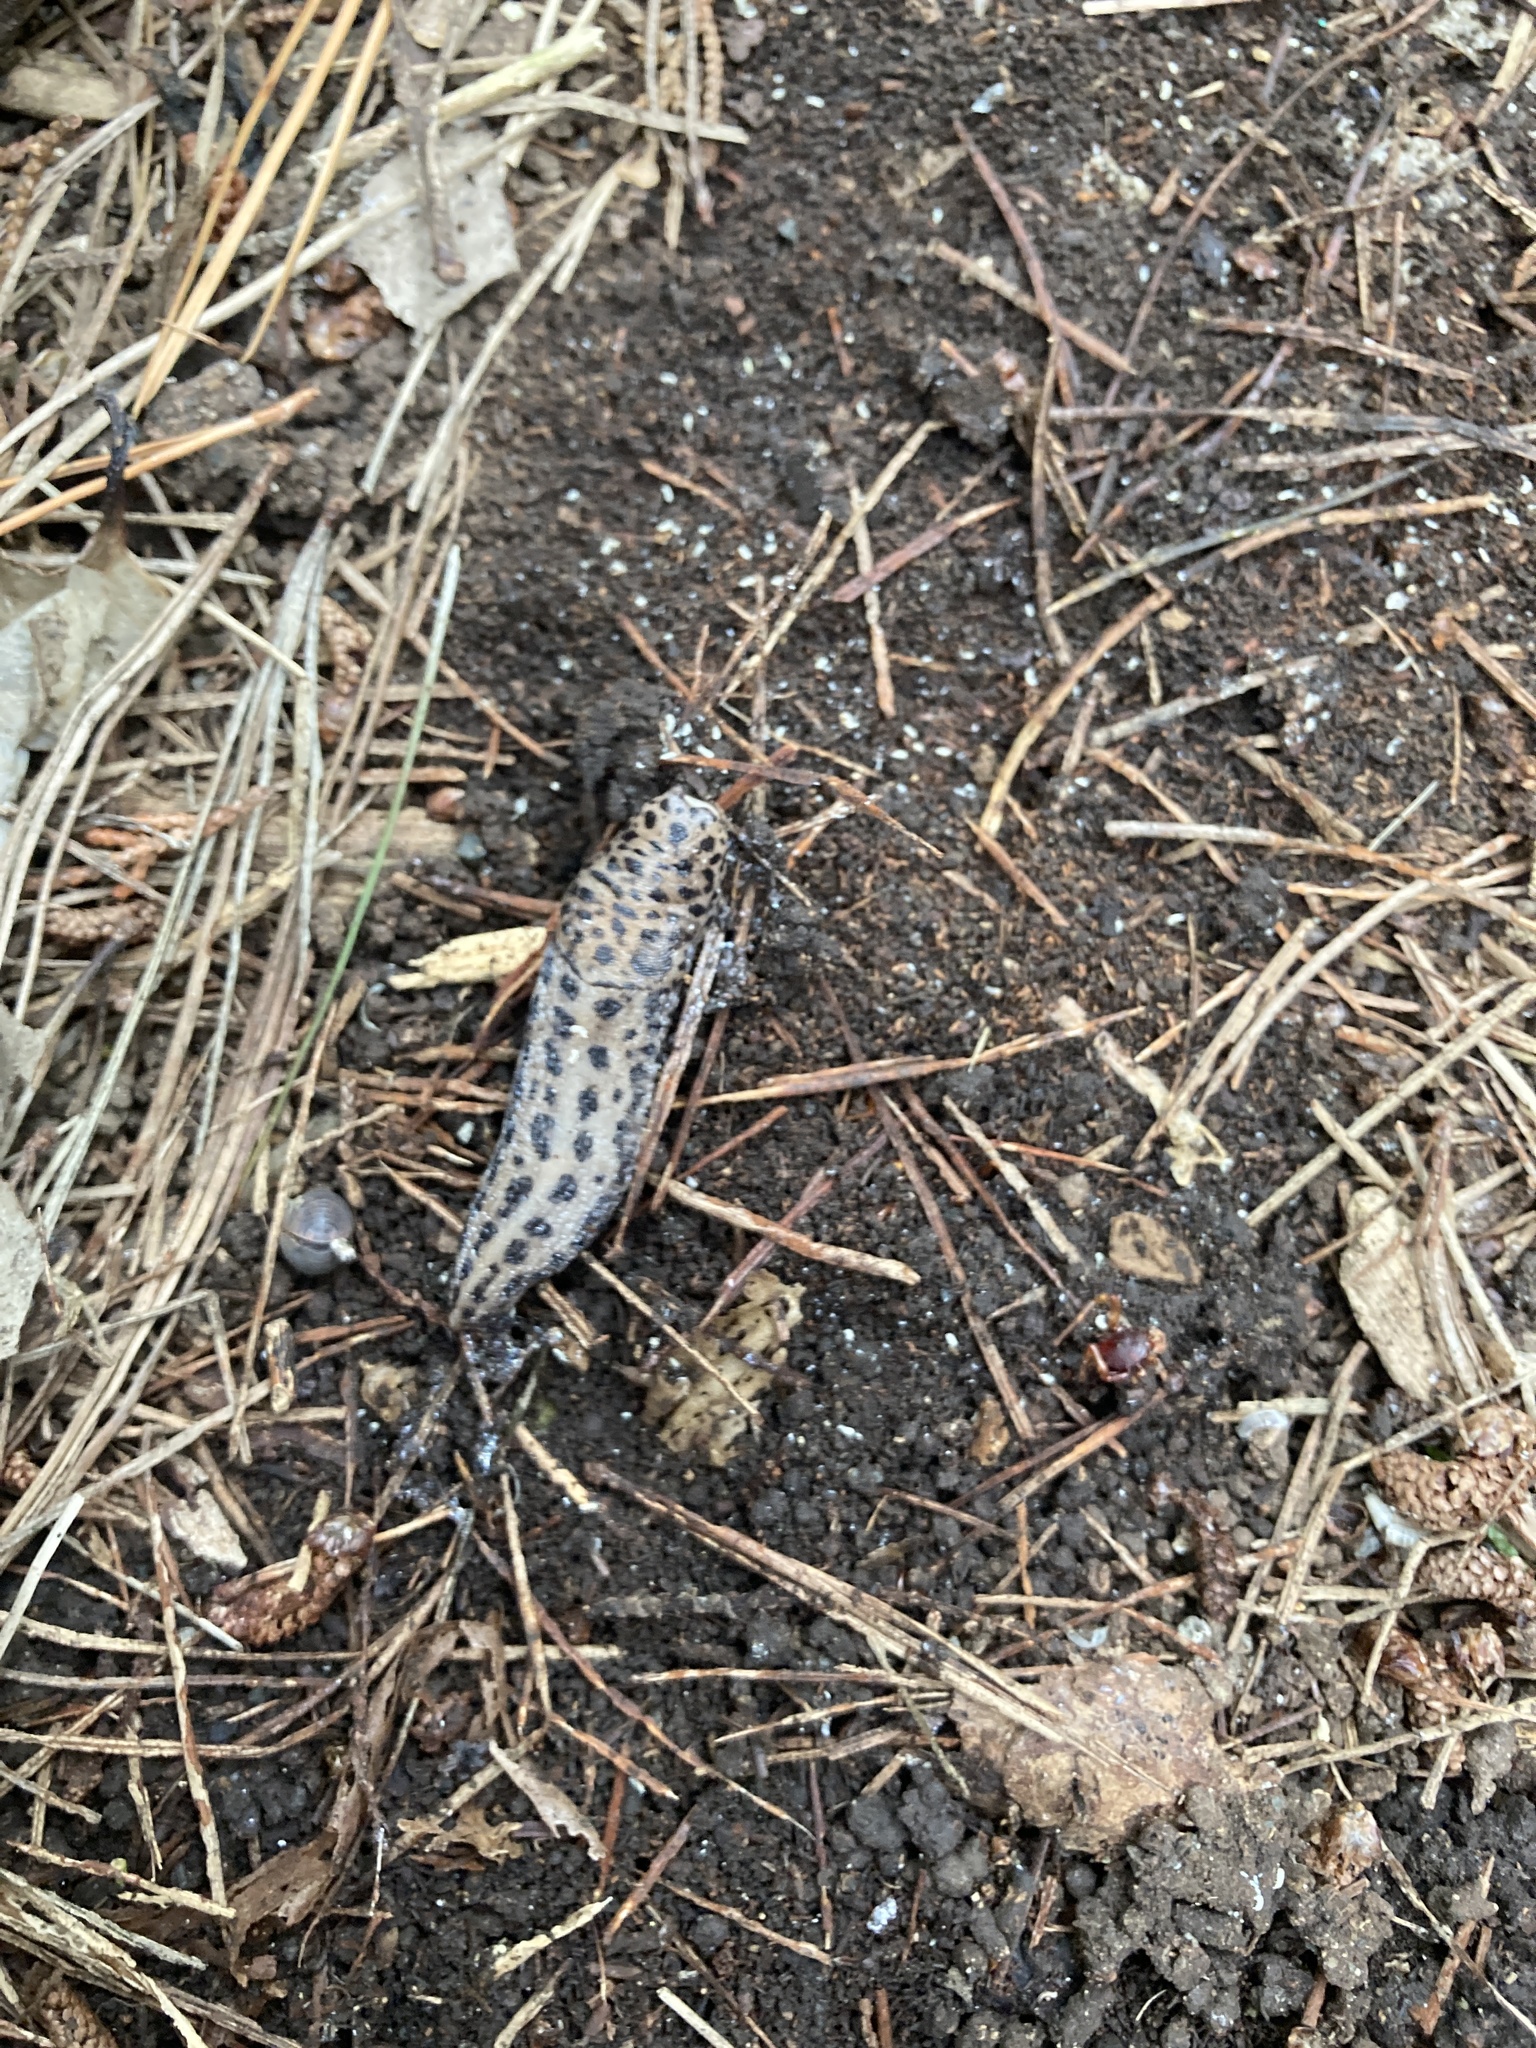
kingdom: Animalia
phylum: Mollusca
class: Gastropoda
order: Stylommatophora
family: Limacidae
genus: Limax
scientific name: Limax maximus
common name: Great grey slug
